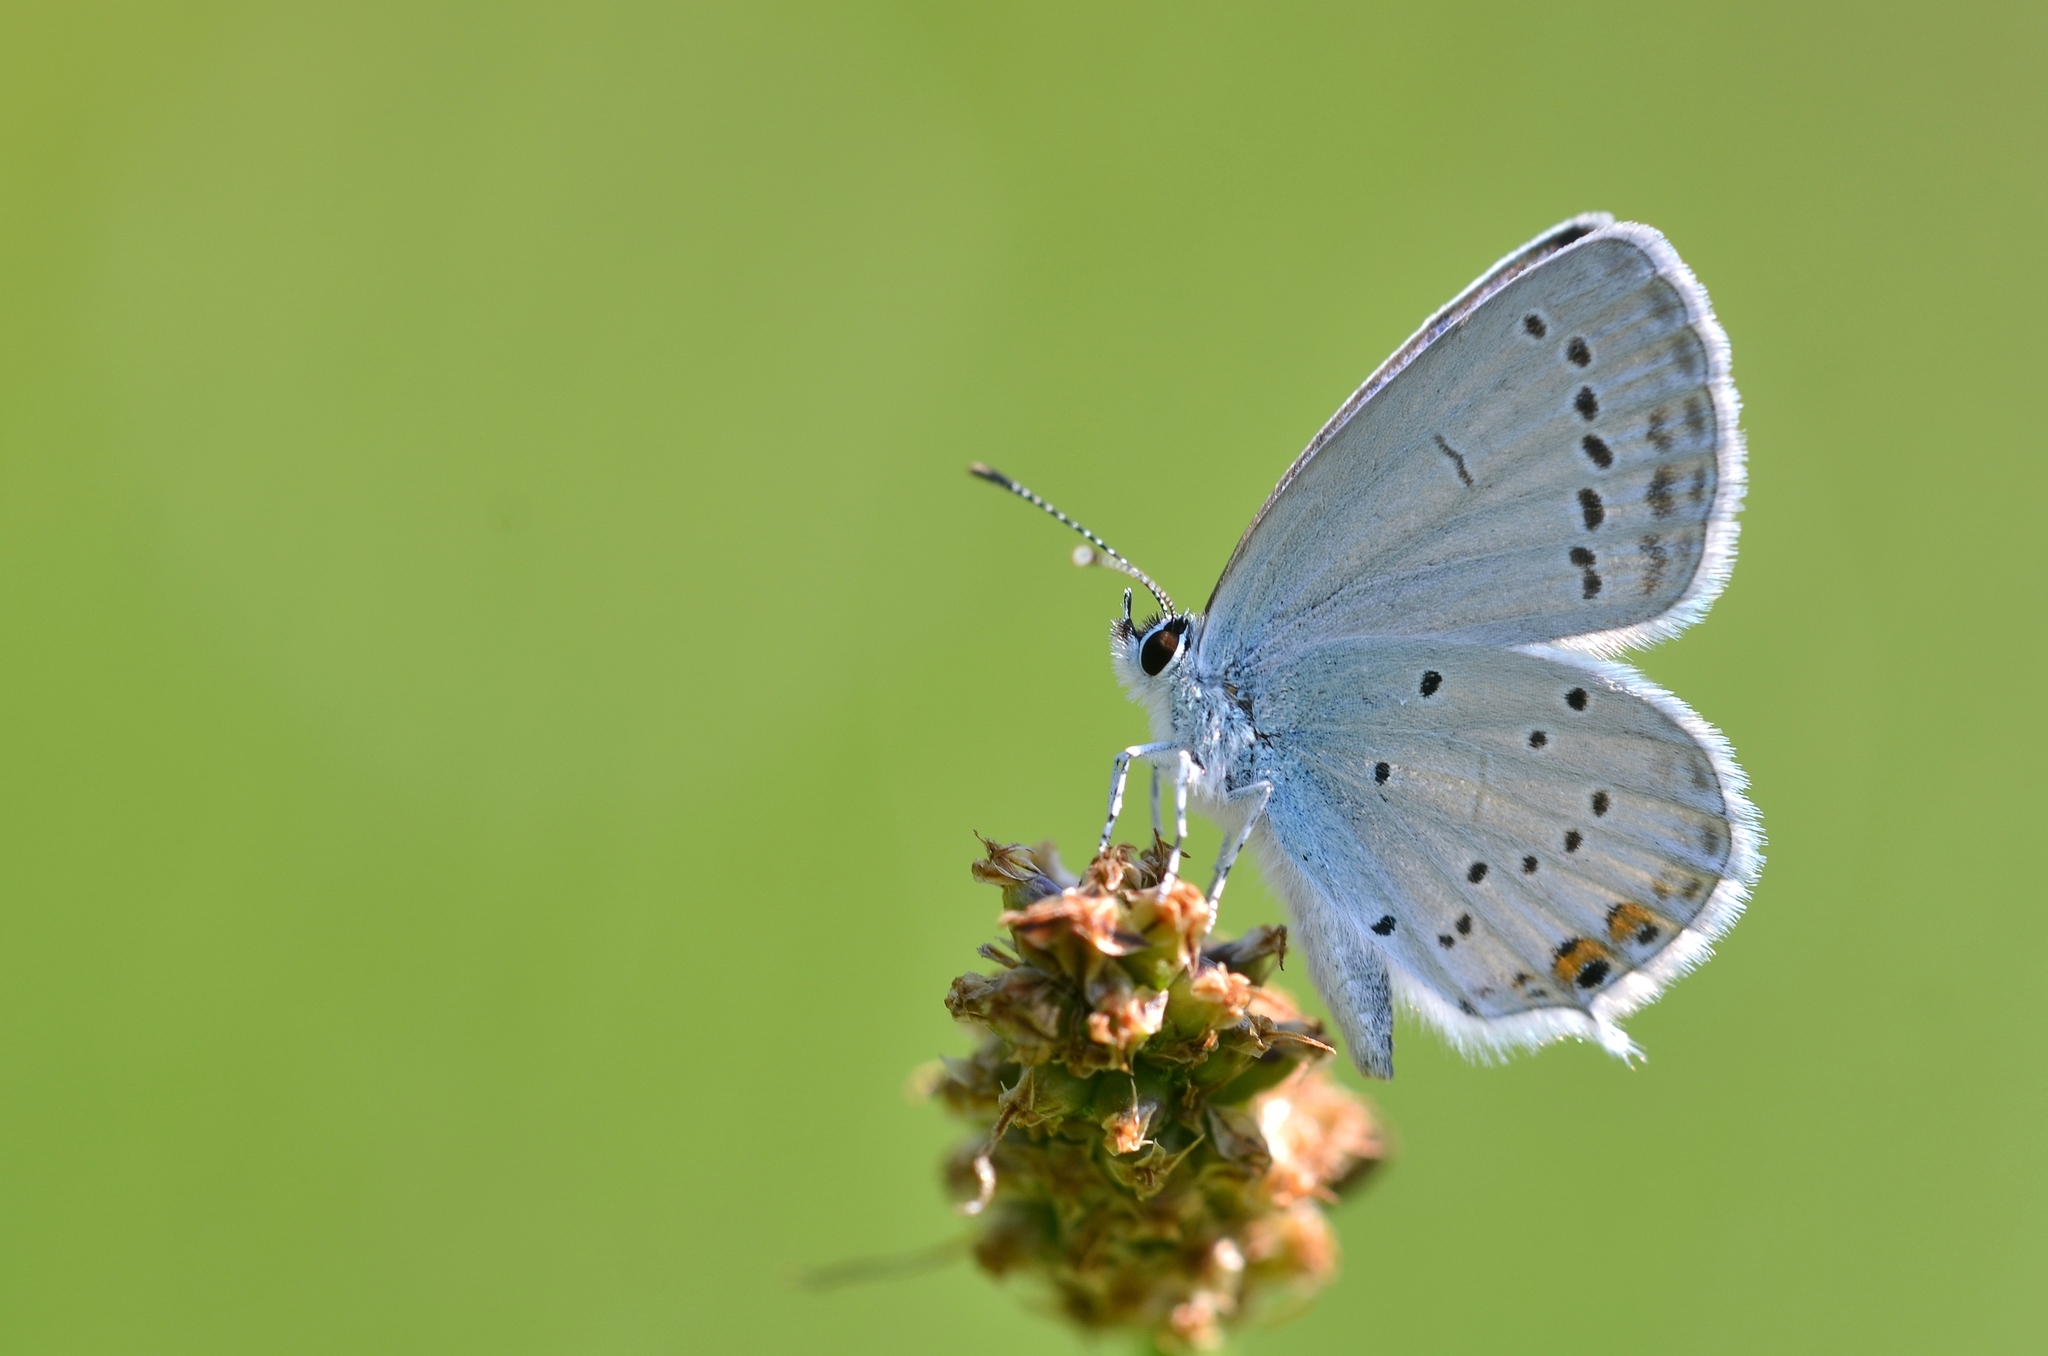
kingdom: Animalia
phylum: Arthropoda
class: Insecta
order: Lepidoptera
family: Lycaenidae
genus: Elkalyce
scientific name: Elkalyce argiades
